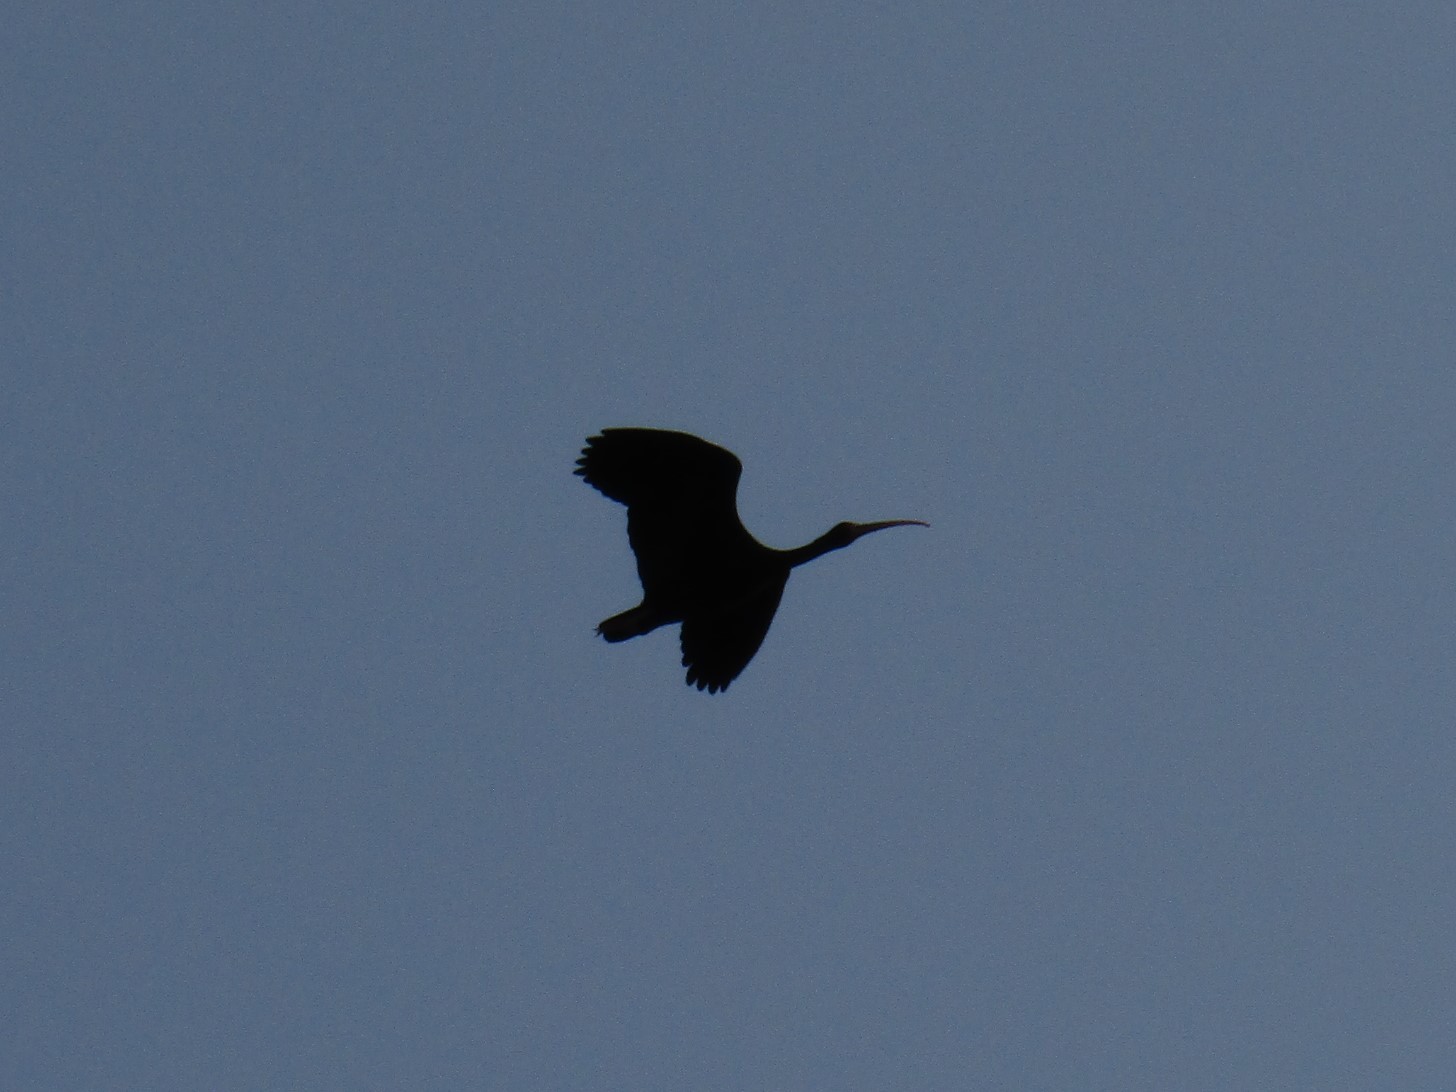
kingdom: Animalia
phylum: Chordata
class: Aves
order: Pelecaniformes
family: Threskiornithidae
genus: Phimosus
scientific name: Phimosus infuscatus
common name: Bare-faced ibis
